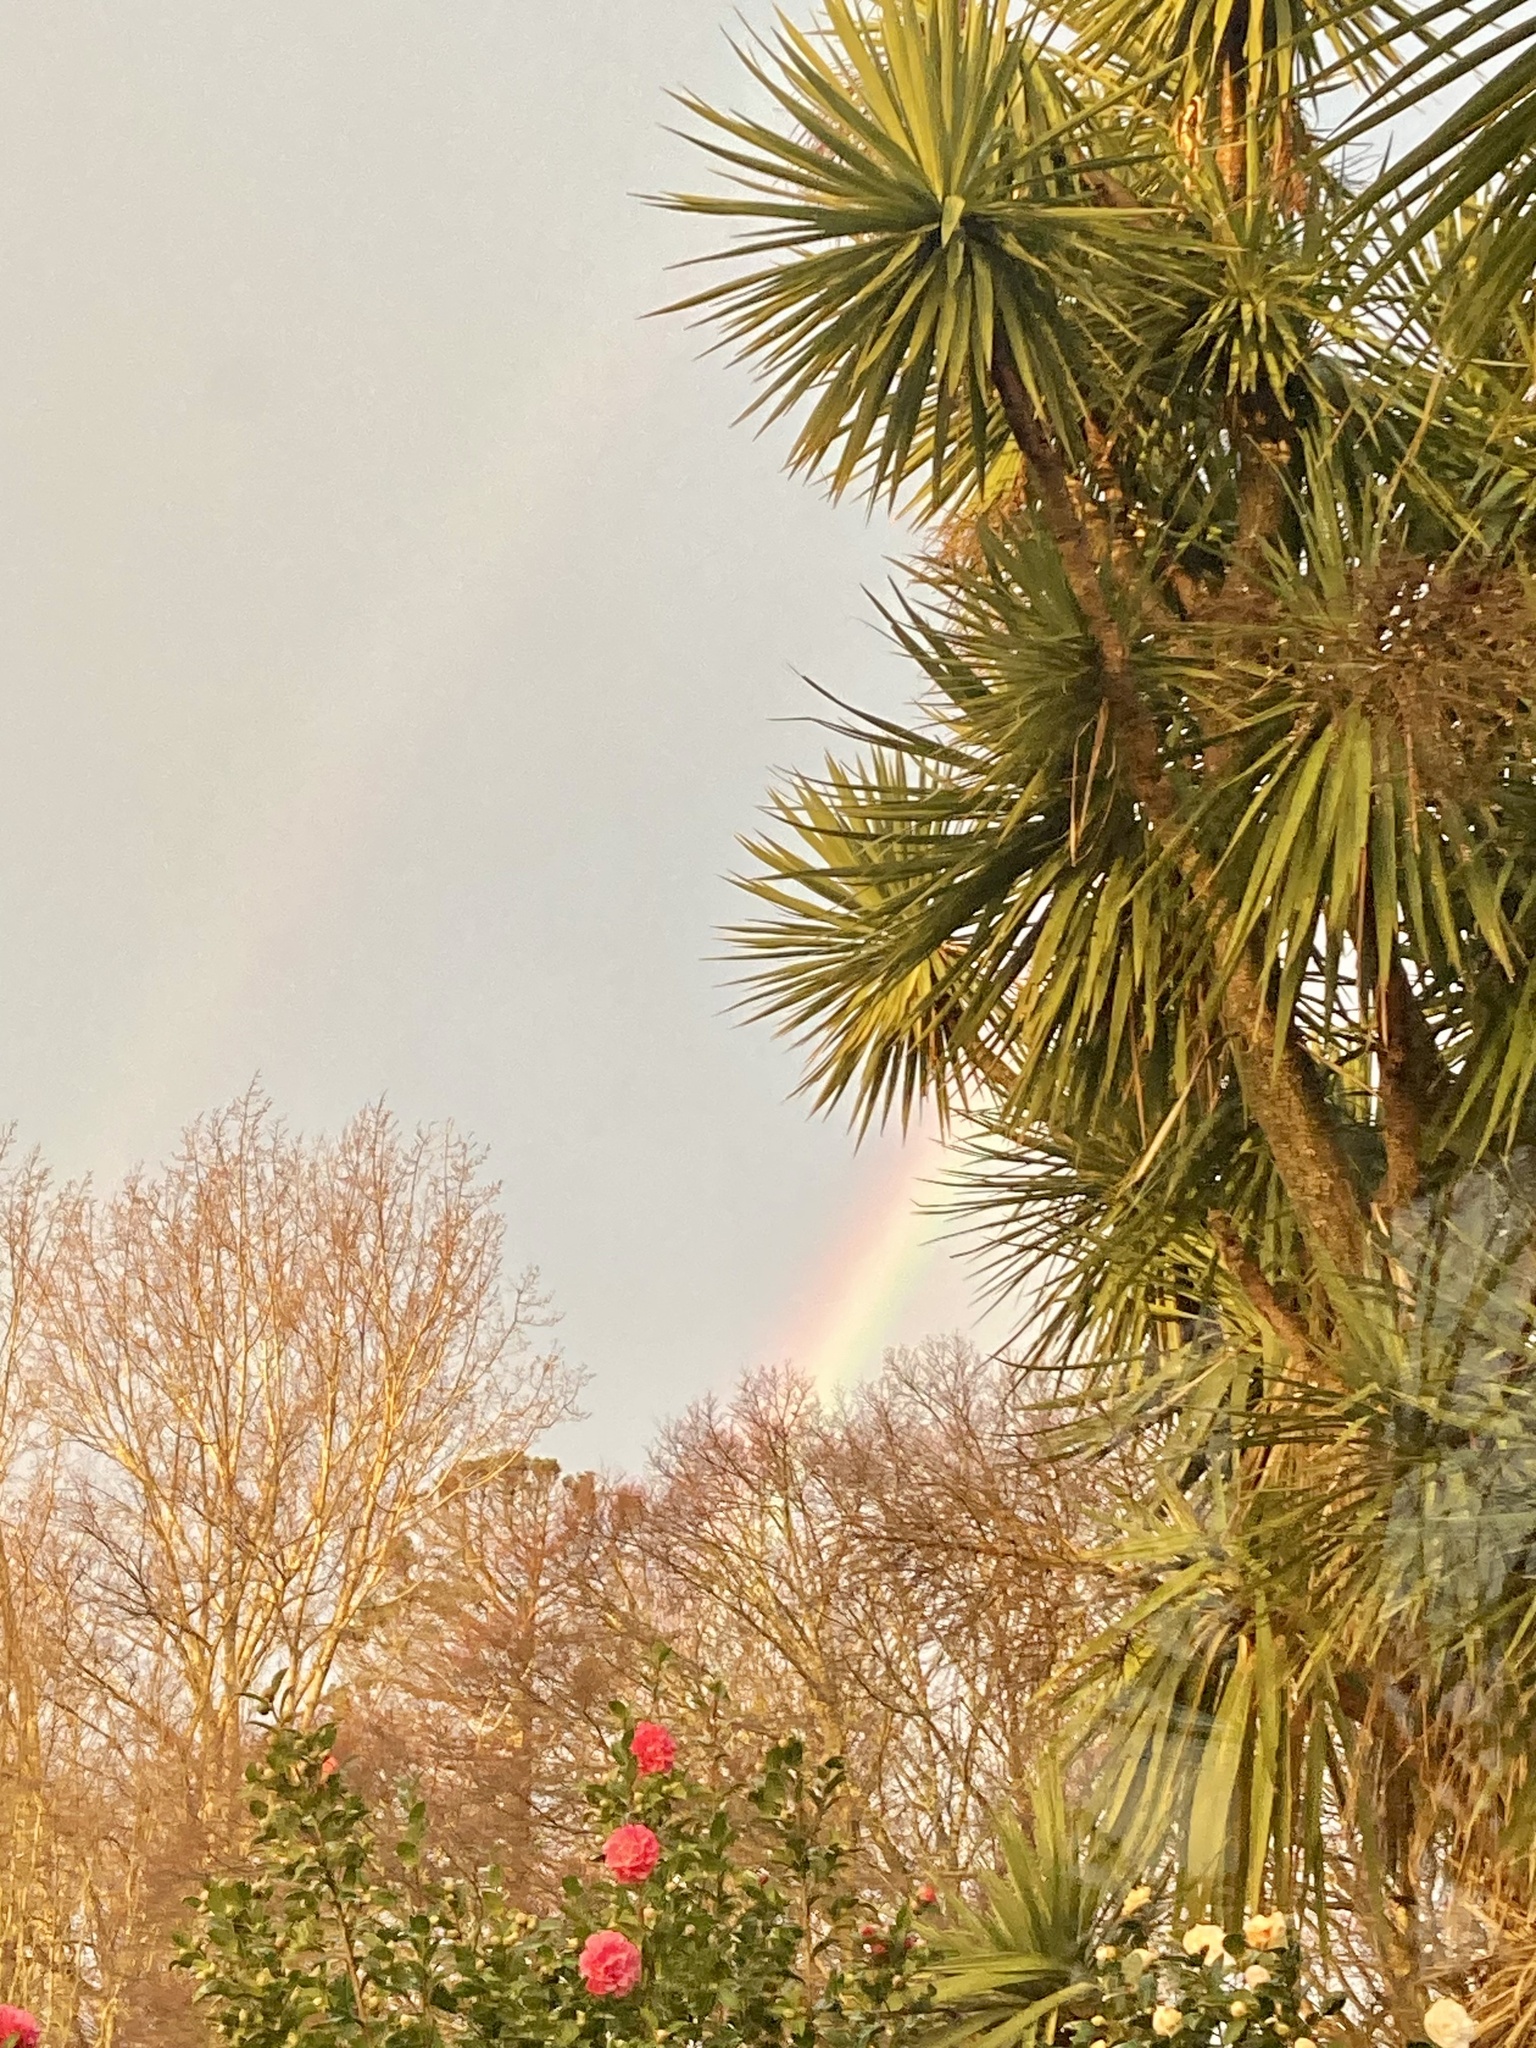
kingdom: Plantae
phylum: Tracheophyta
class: Liliopsida
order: Asparagales
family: Asparagaceae
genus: Cordyline
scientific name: Cordyline australis
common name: Cabbage-palm
